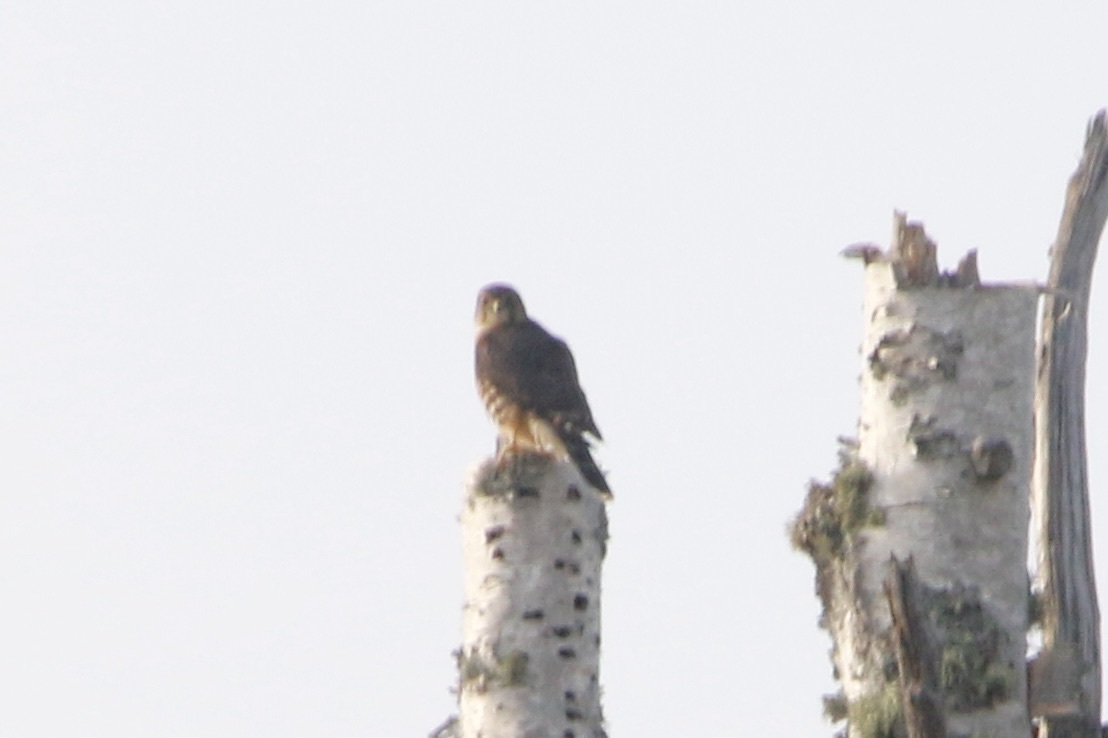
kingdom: Animalia
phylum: Chordata
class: Aves
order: Falconiformes
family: Falconidae
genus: Falco
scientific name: Falco columbarius
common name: Merlin
